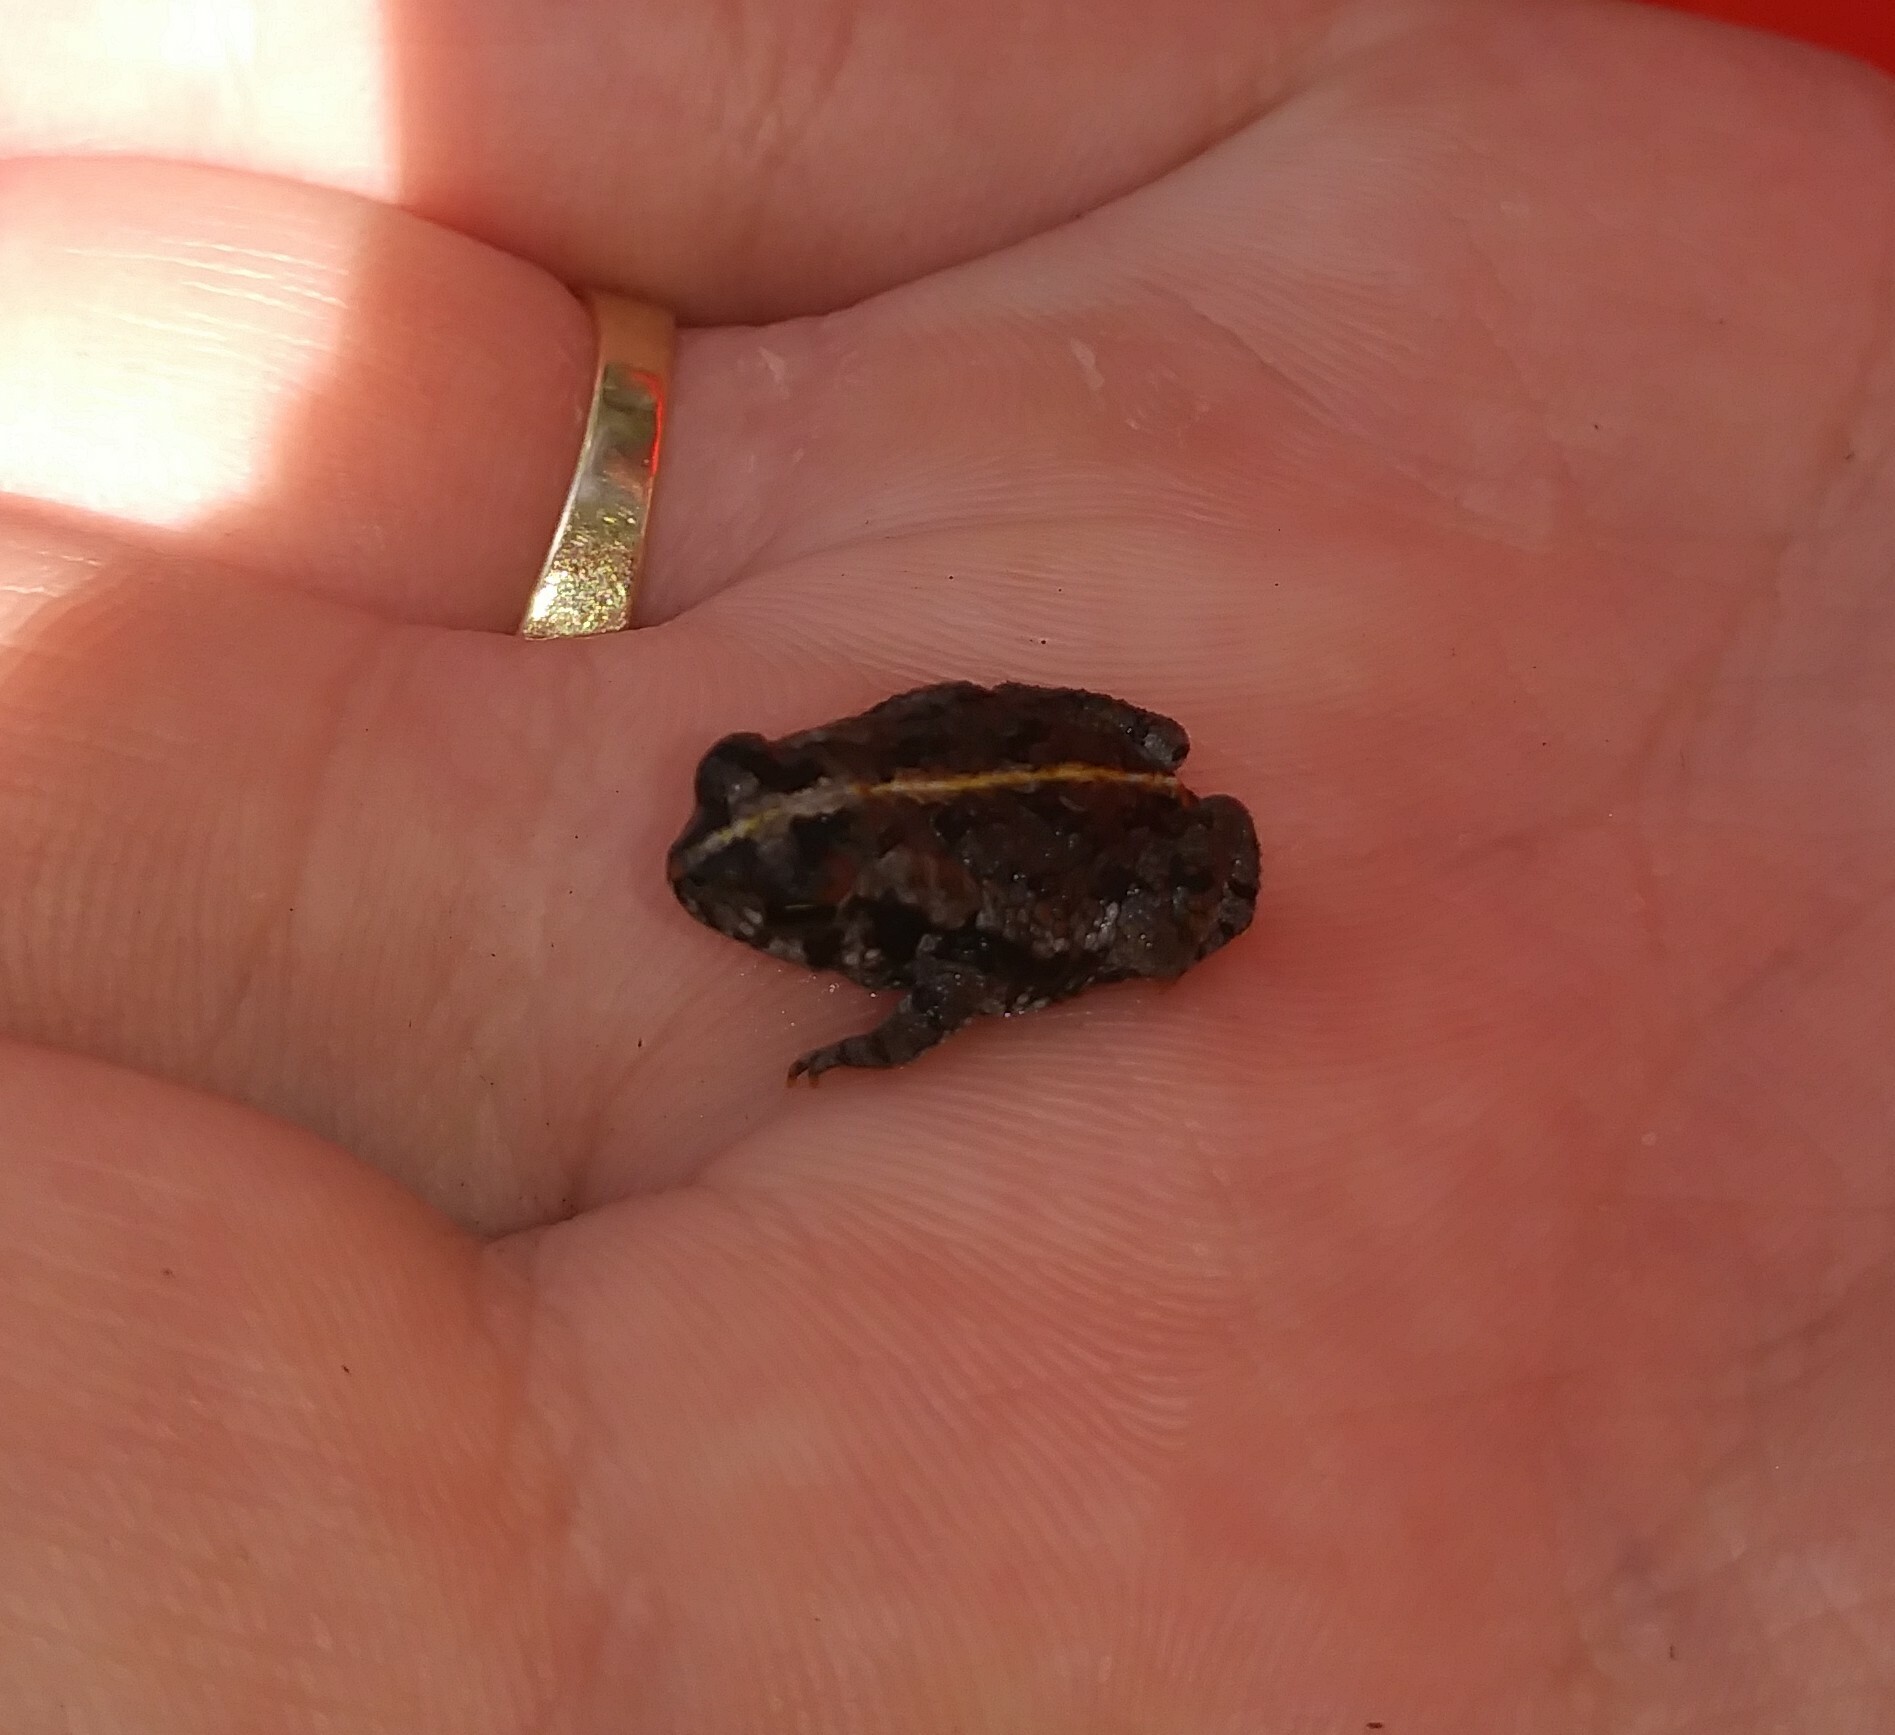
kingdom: Animalia
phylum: Chordata
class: Amphibia
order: Anura
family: Bufonidae
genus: Anaxyrus
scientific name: Anaxyrus quercicus
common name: Oak toad
